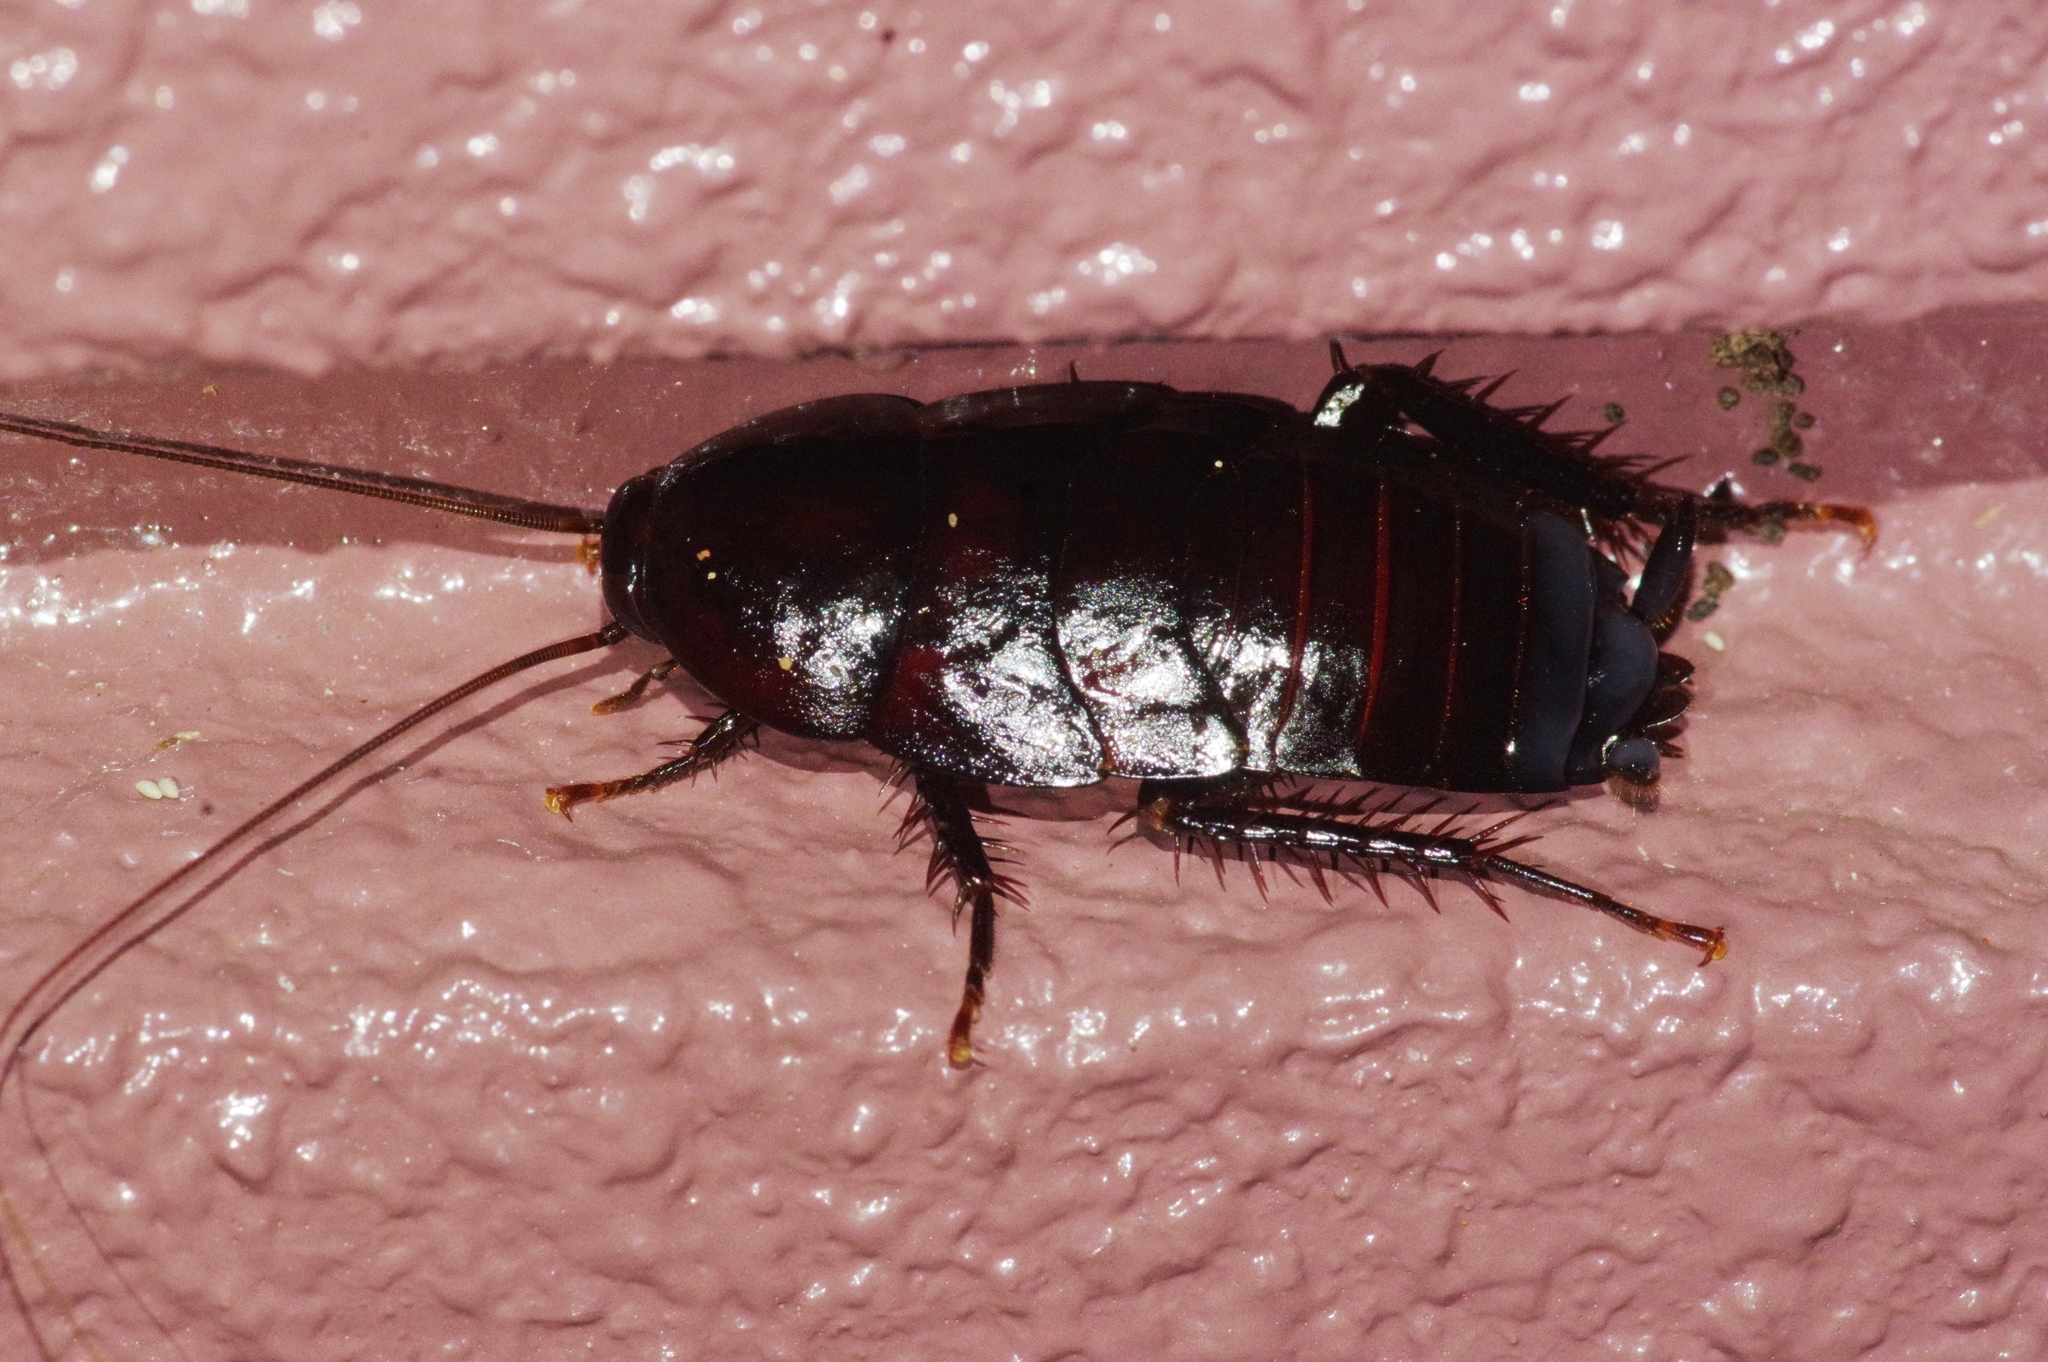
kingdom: Animalia
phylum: Arthropoda
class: Insecta
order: Blattodea
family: Blattidae
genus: Periplaneta
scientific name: Periplaneta japanna
